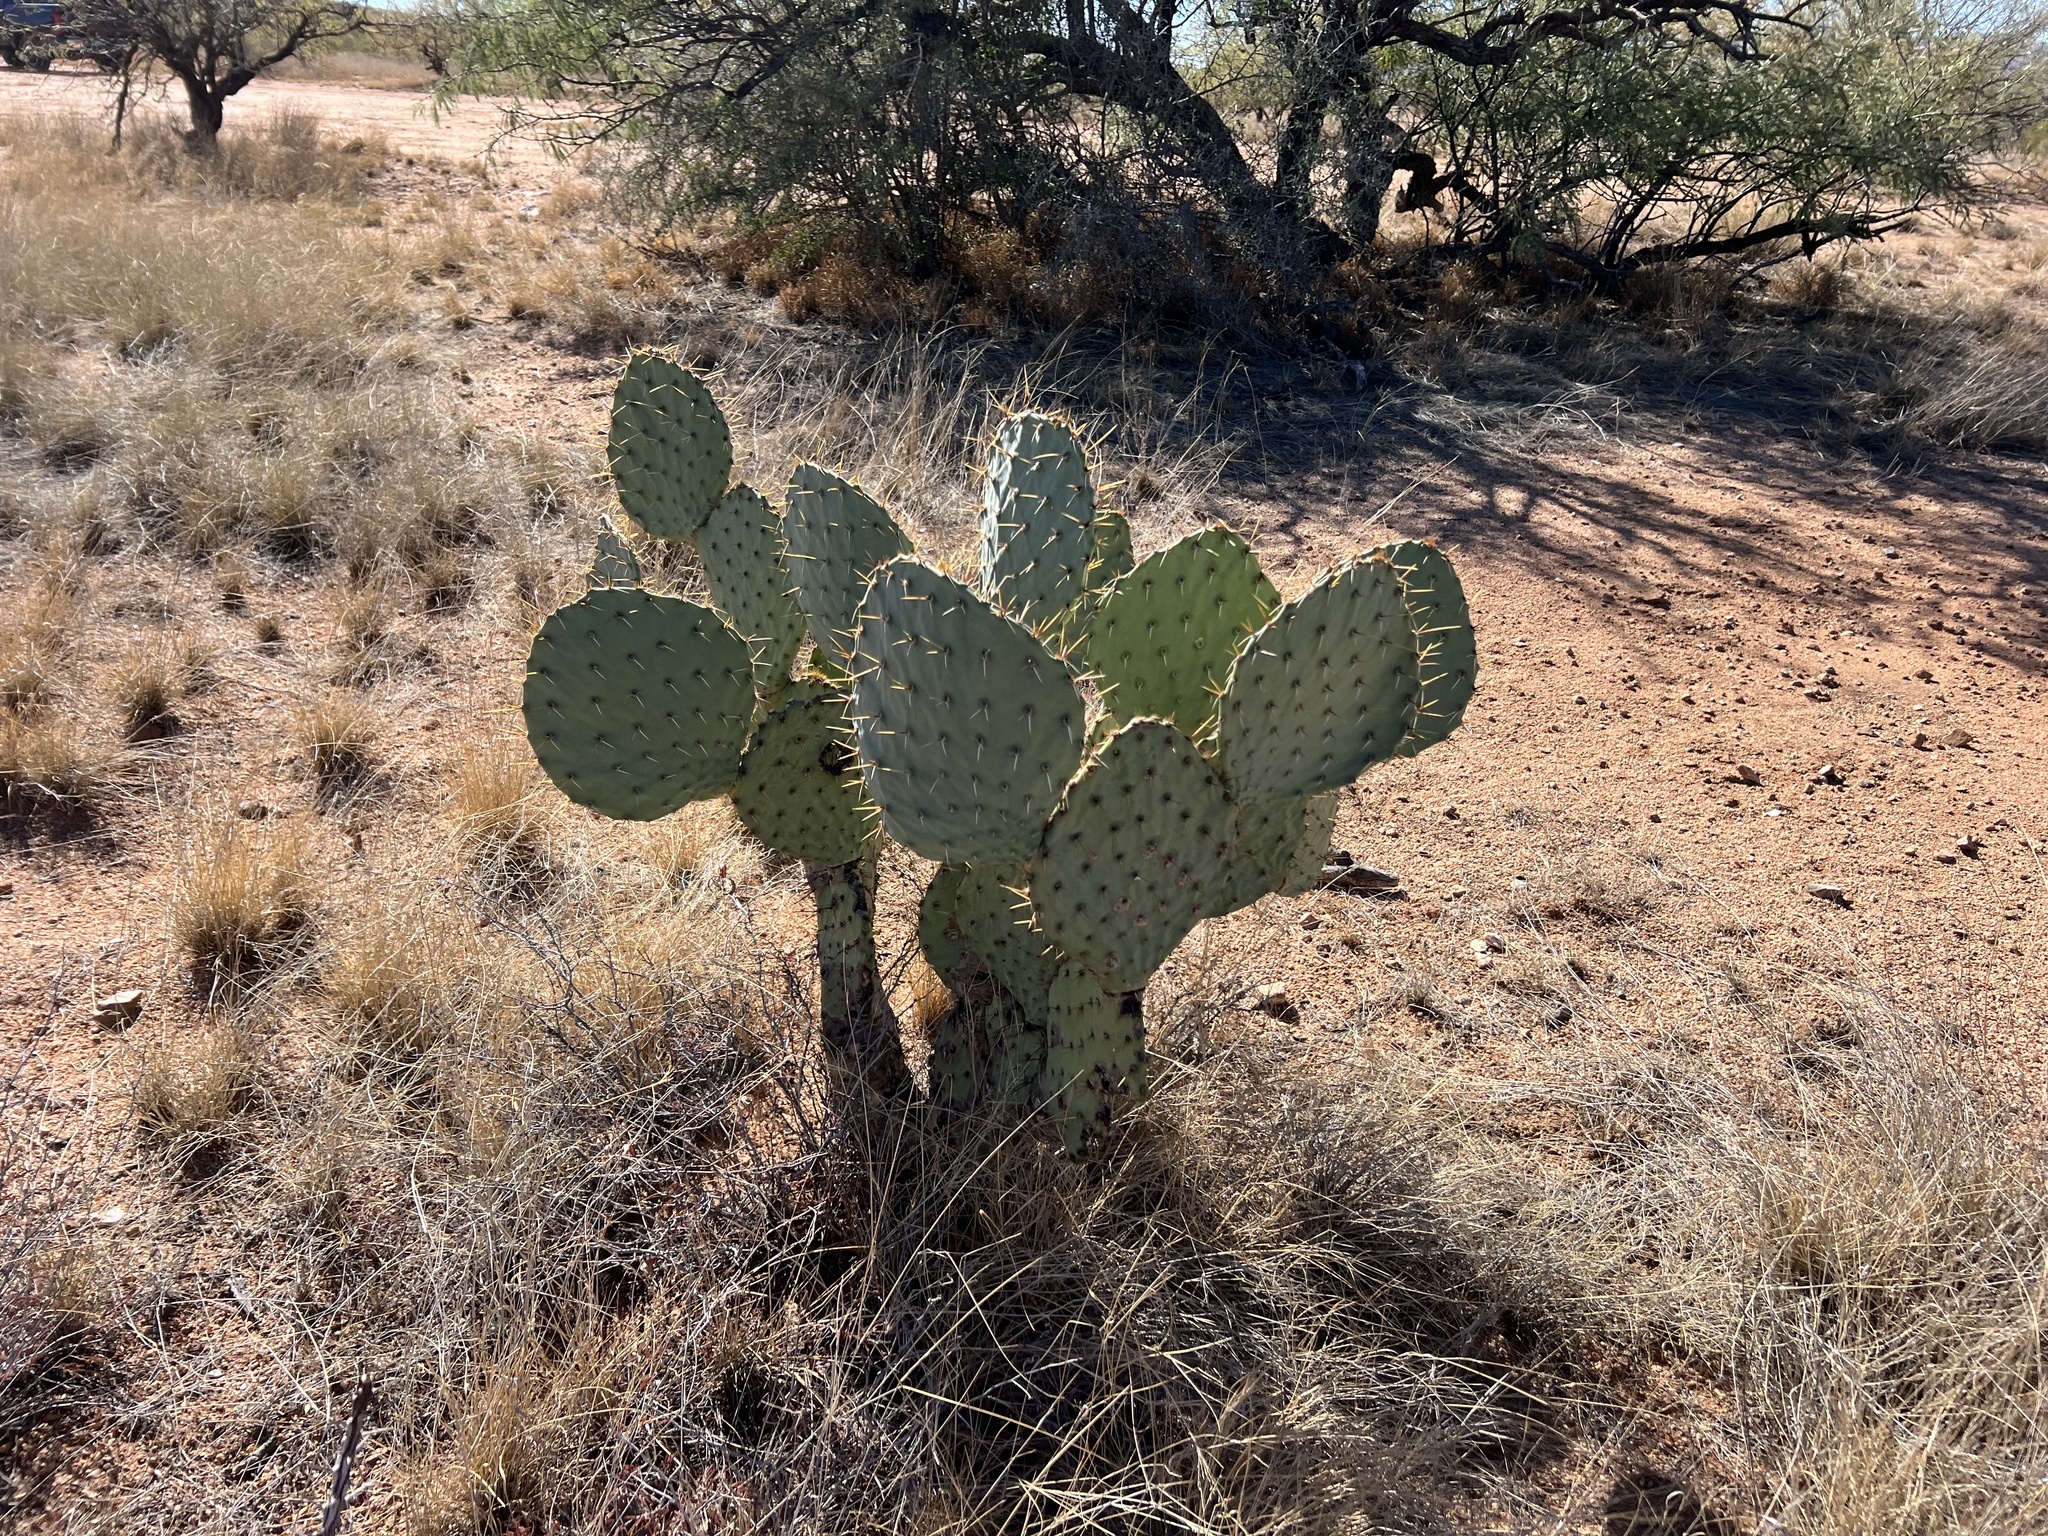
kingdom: Plantae
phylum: Tracheophyta
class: Magnoliopsida
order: Caryophyllales
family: Cactaceae
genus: Opuntia
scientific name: Opuntia engelmannii
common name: Cactus-apple
